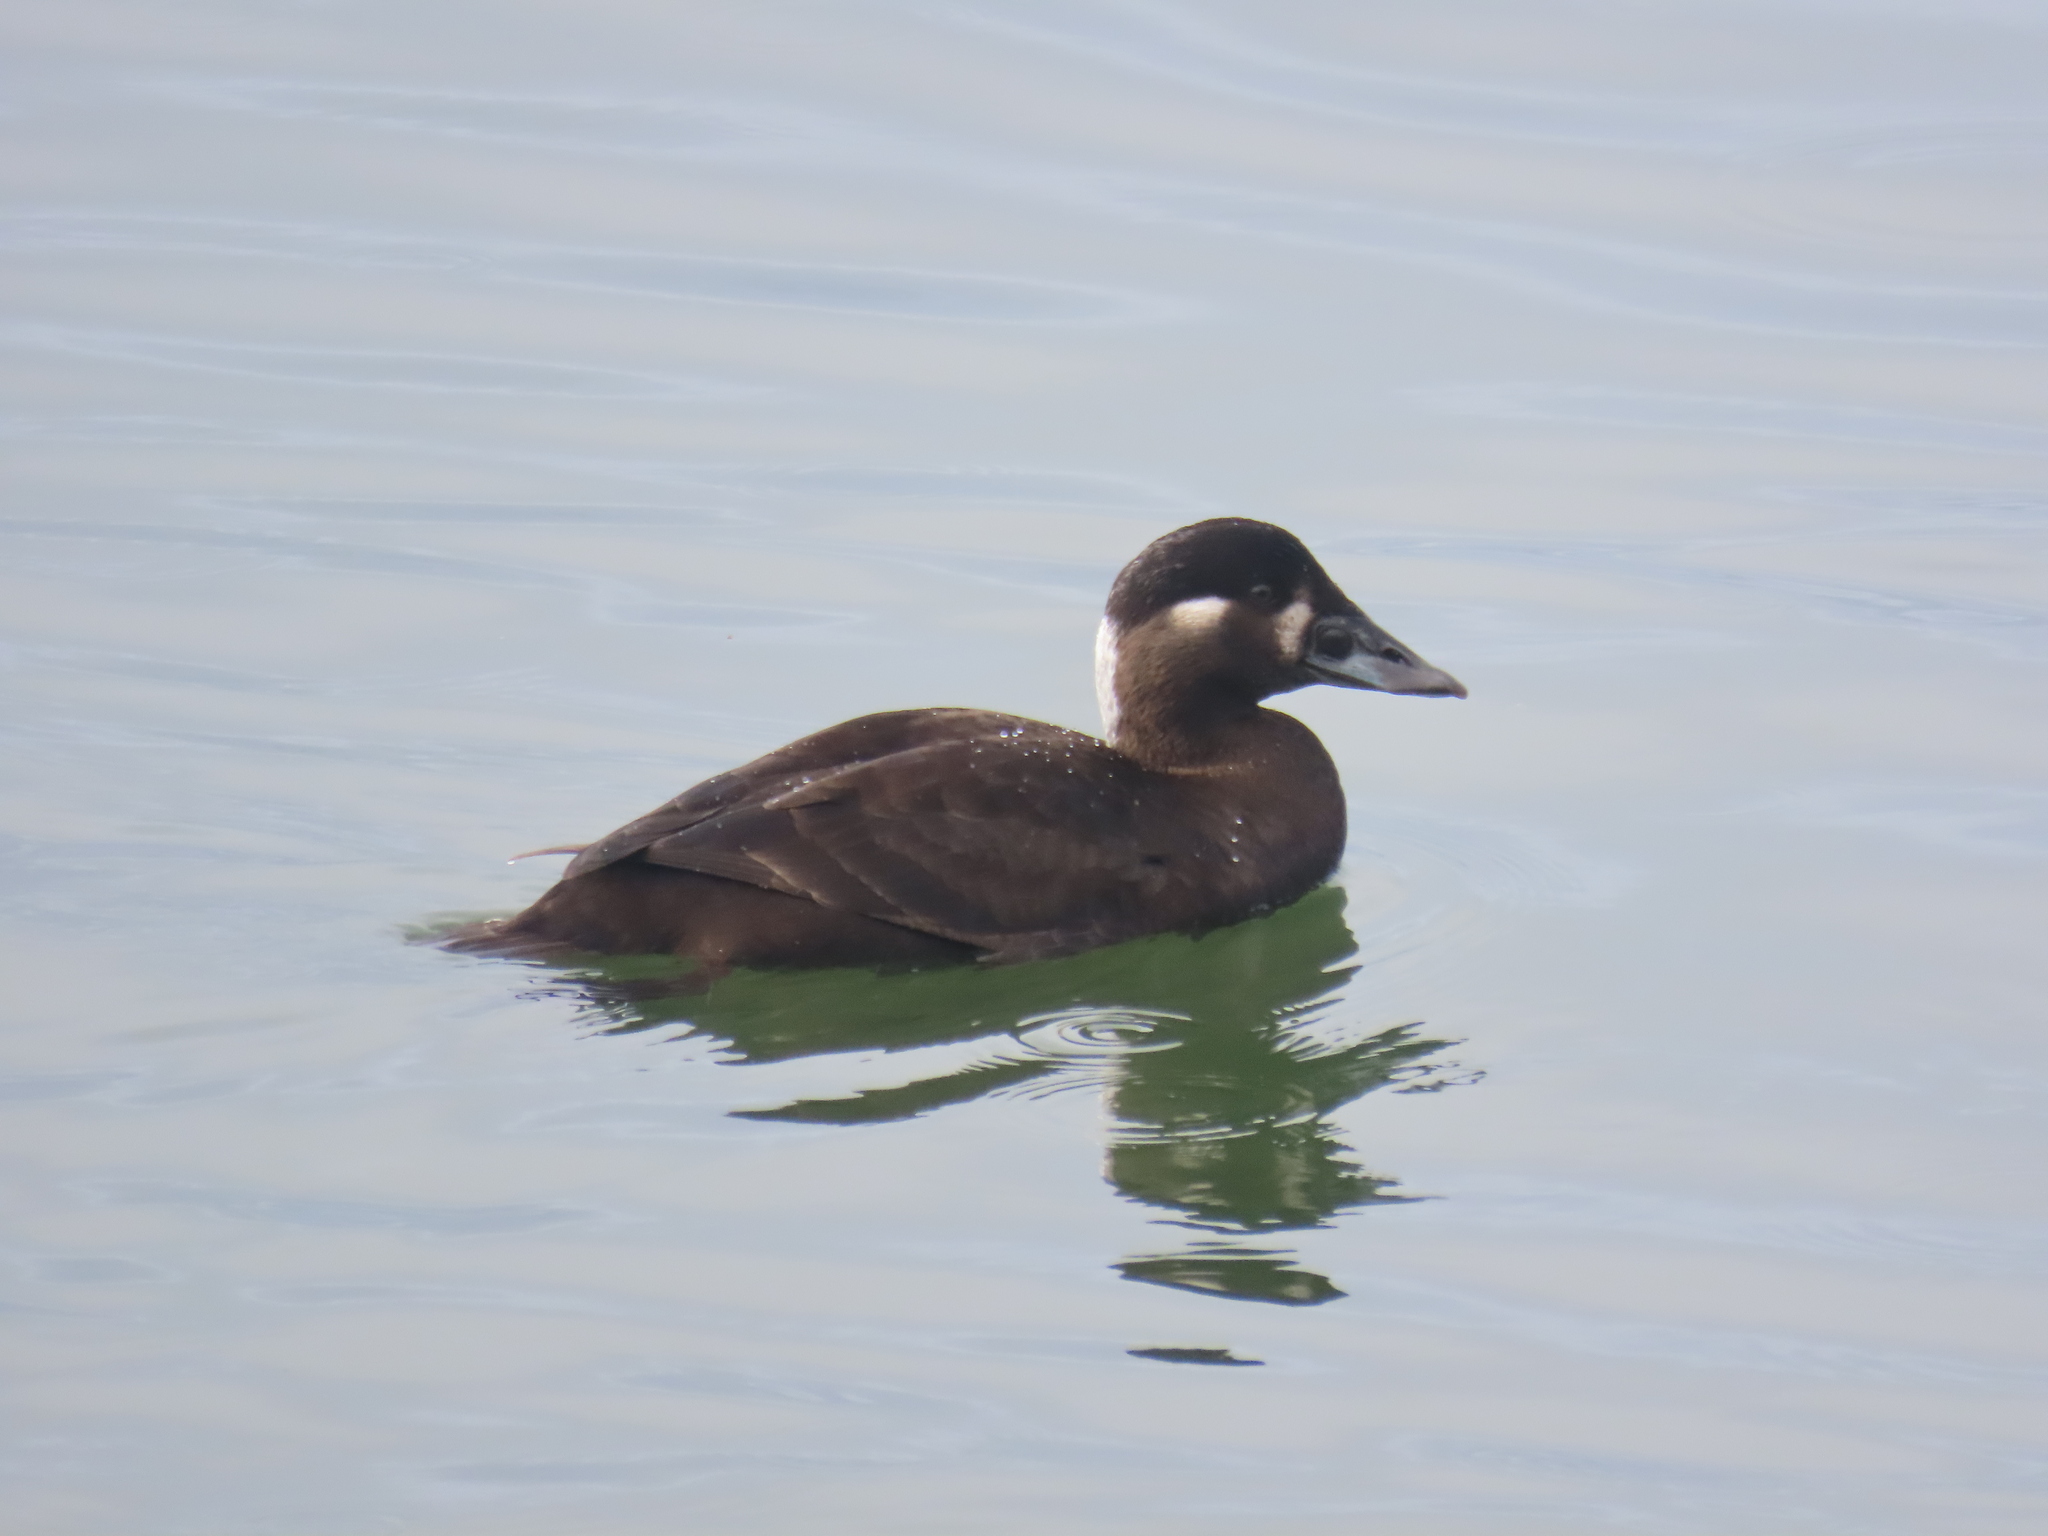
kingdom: Animalia
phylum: Chordata
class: Aves
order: Anseriformes
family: Anatidae
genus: Melanitta
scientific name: Melanitta perspicillata
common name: Surf scoter
